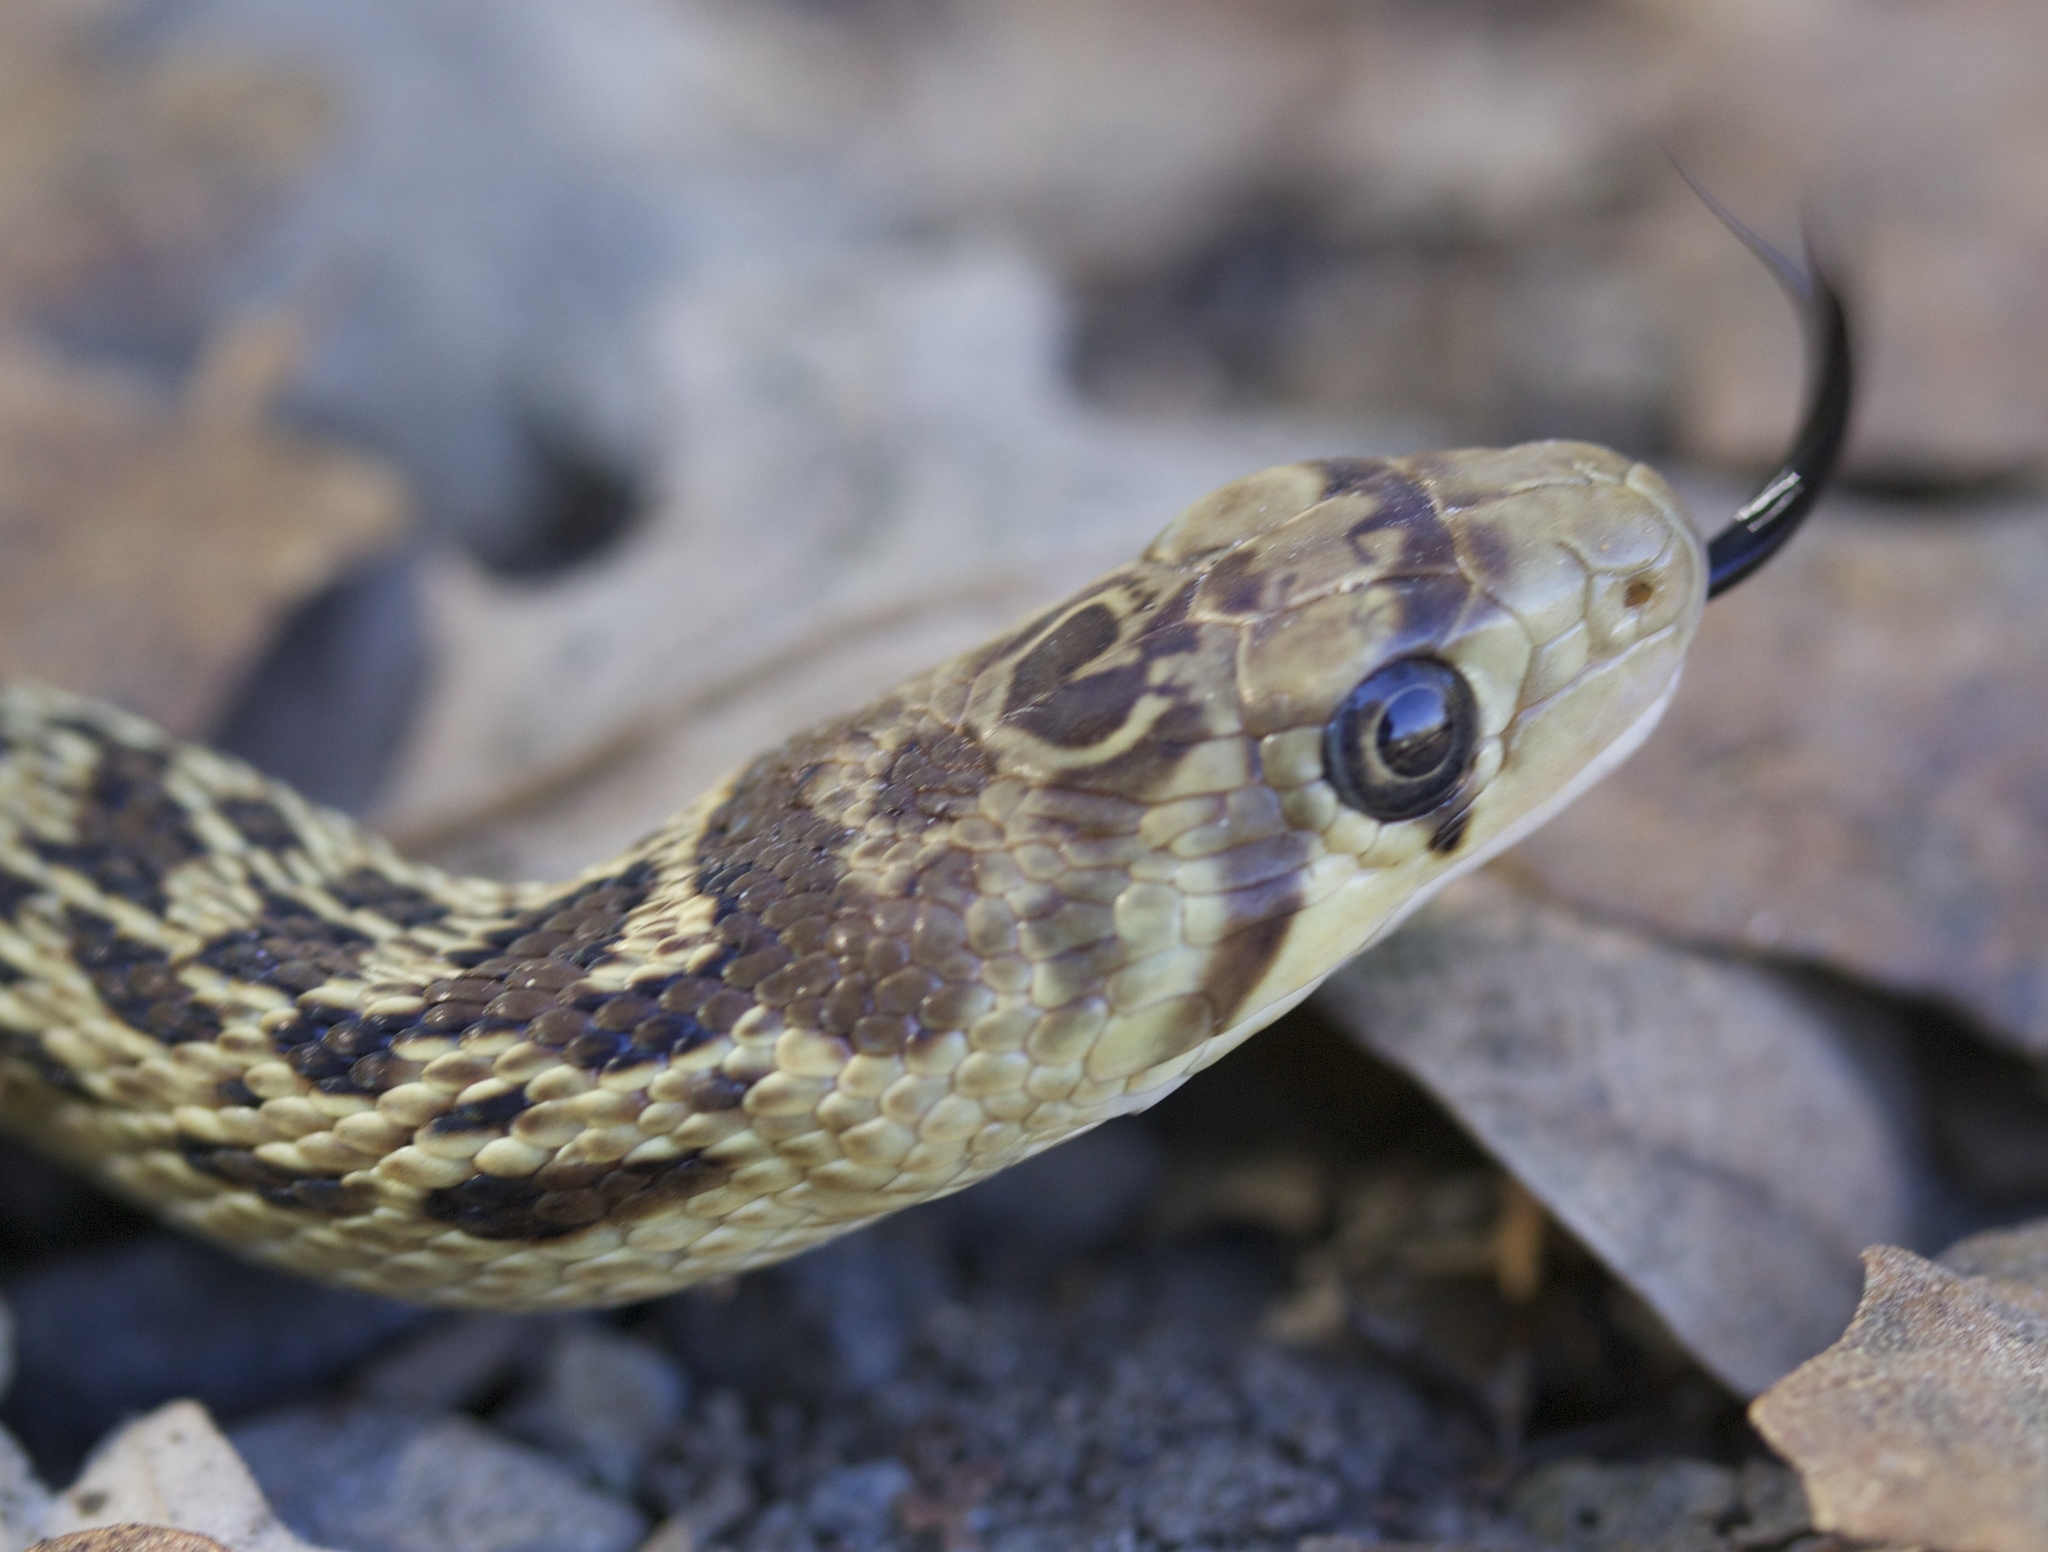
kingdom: Animalia
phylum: Chordata
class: Squamata
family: Colubridae
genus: Pituophis
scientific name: Pituophis catenifer
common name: Gopher snake
